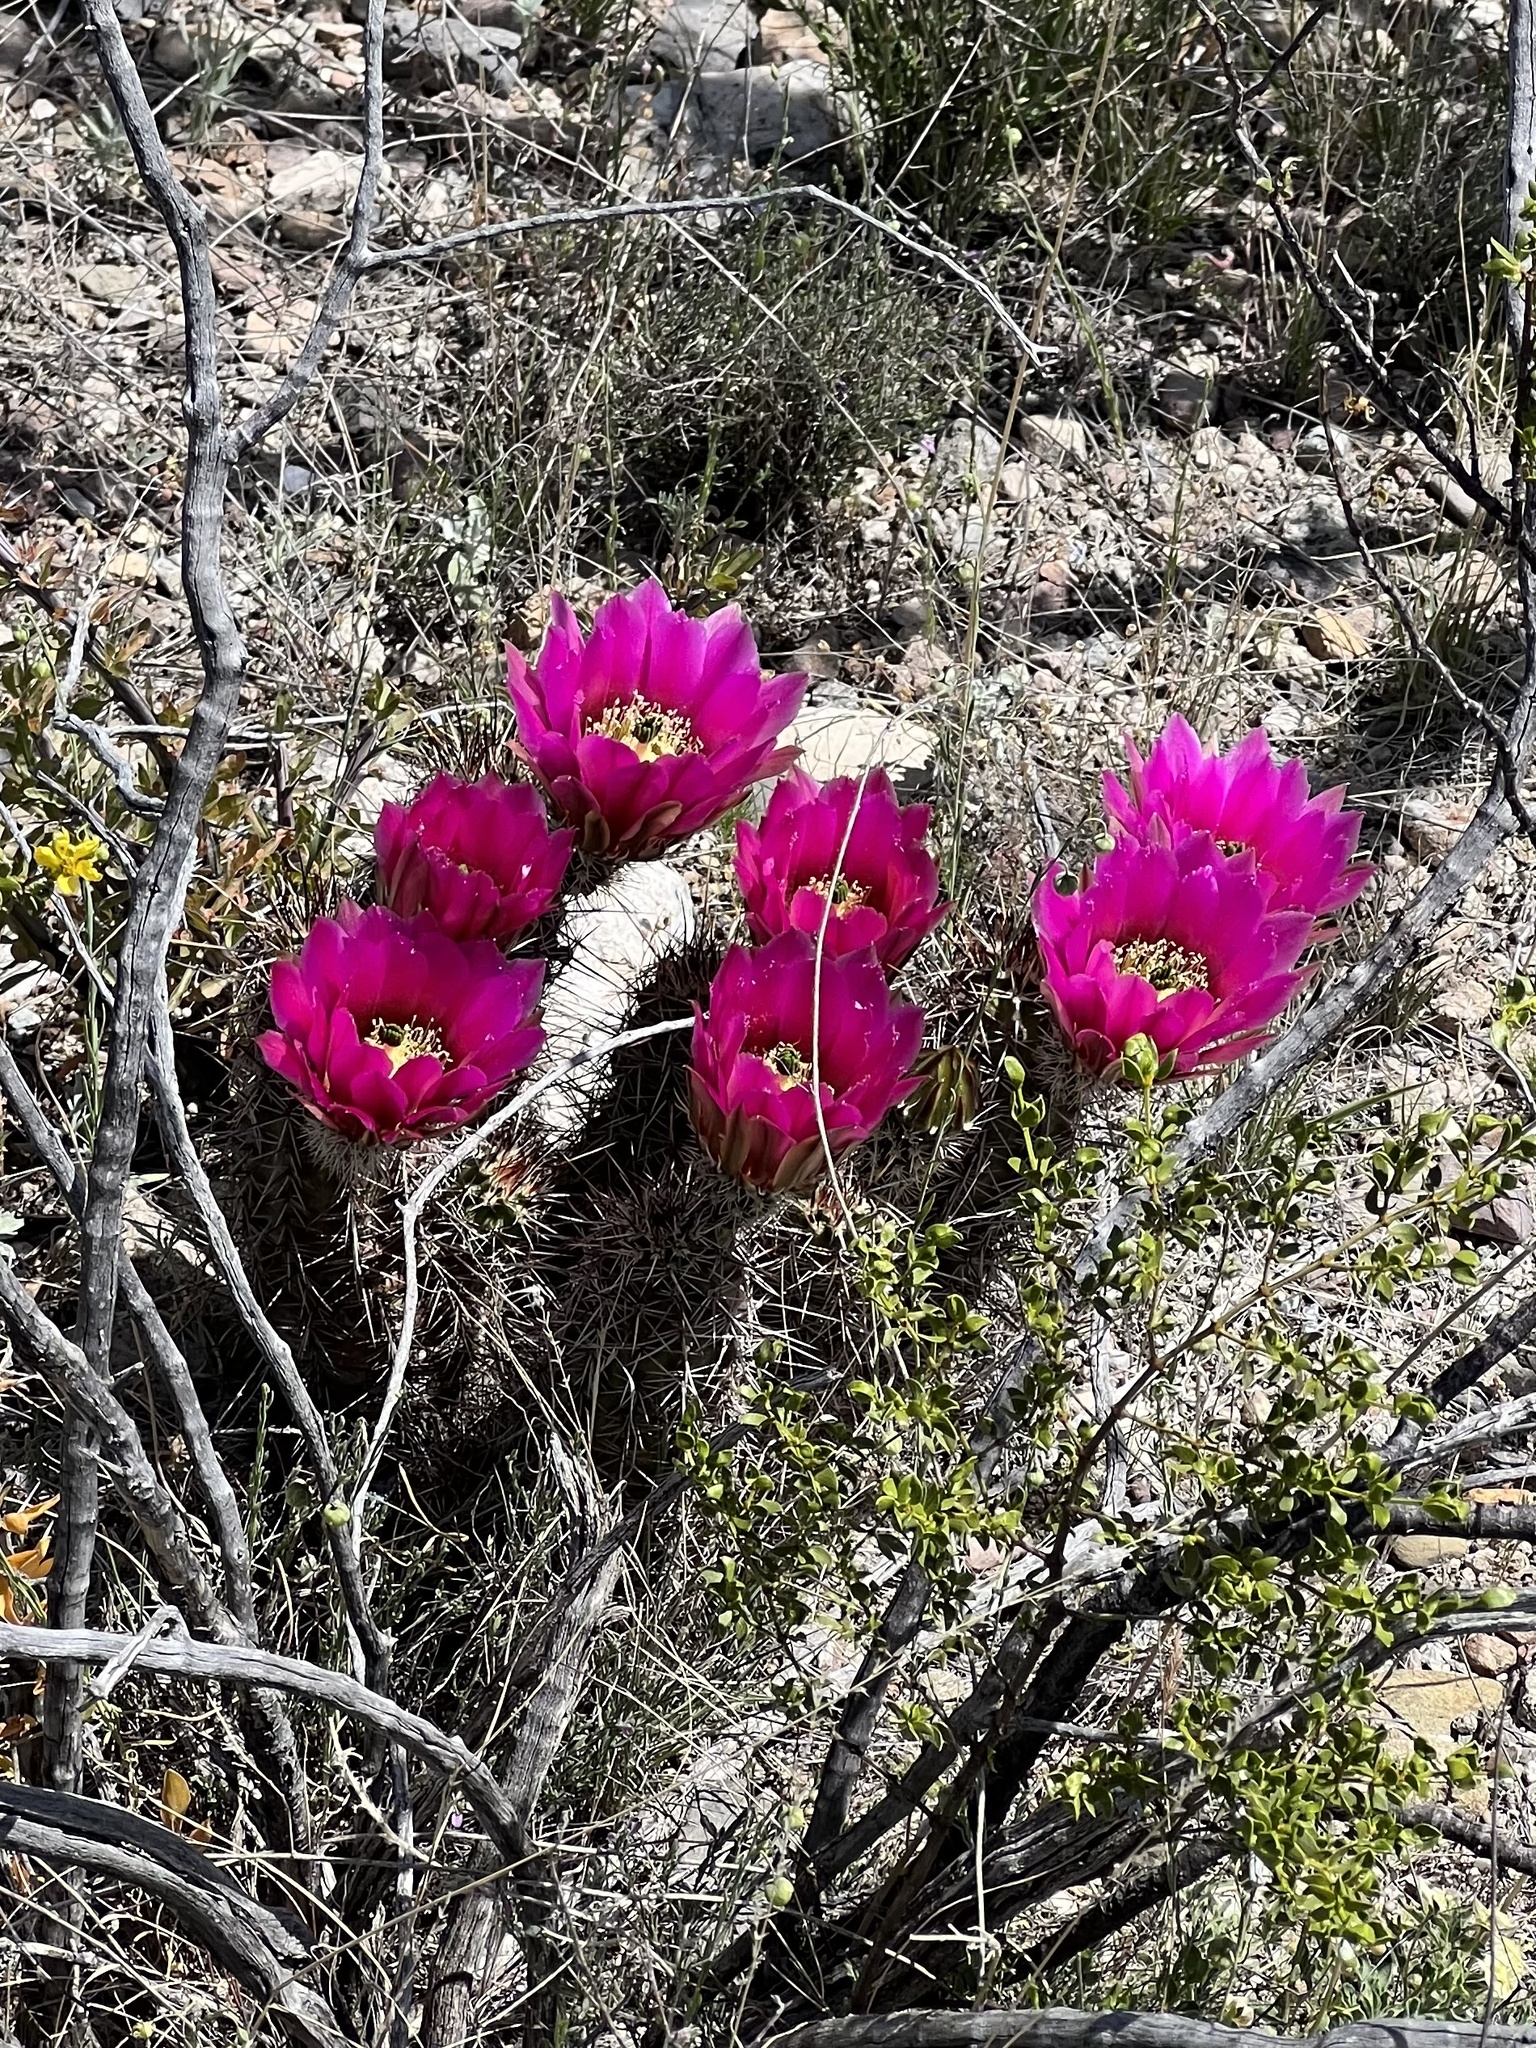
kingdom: Plantae
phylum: Tracheophyta
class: Magnoliopsida
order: Caryophyllales
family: Cactaceae
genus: Echinocereus
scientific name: Echinocereus fasciculatus
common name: Bundle hedgehog
